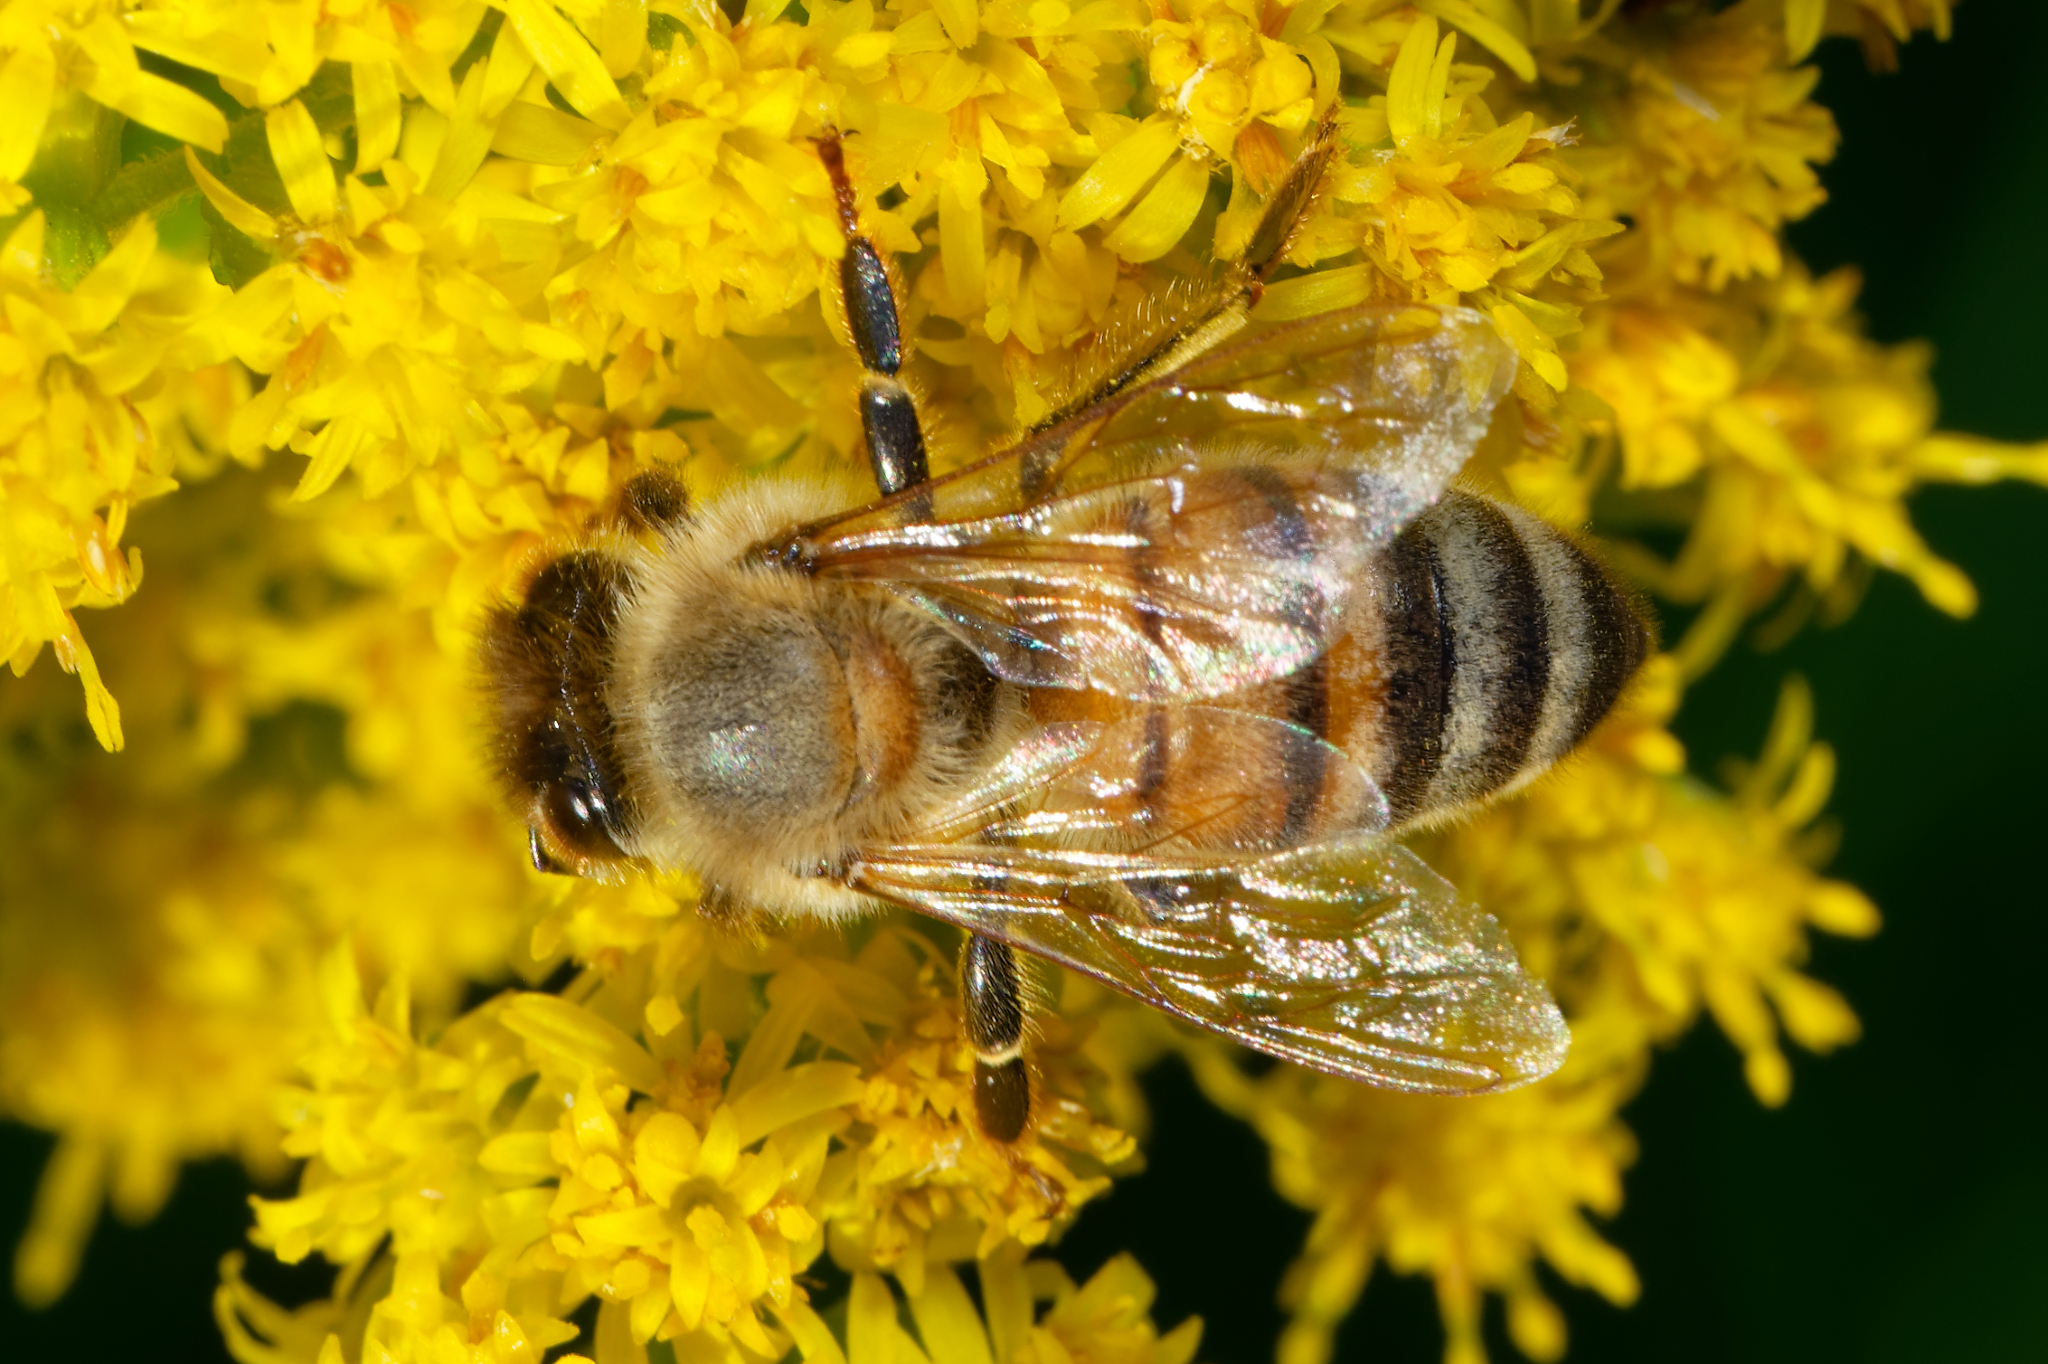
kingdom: Animalia
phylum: Arthropoda
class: Insecta
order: Hymenoptera
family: Apidae
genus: Apis
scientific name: Apis mellifera
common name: Honey bee
